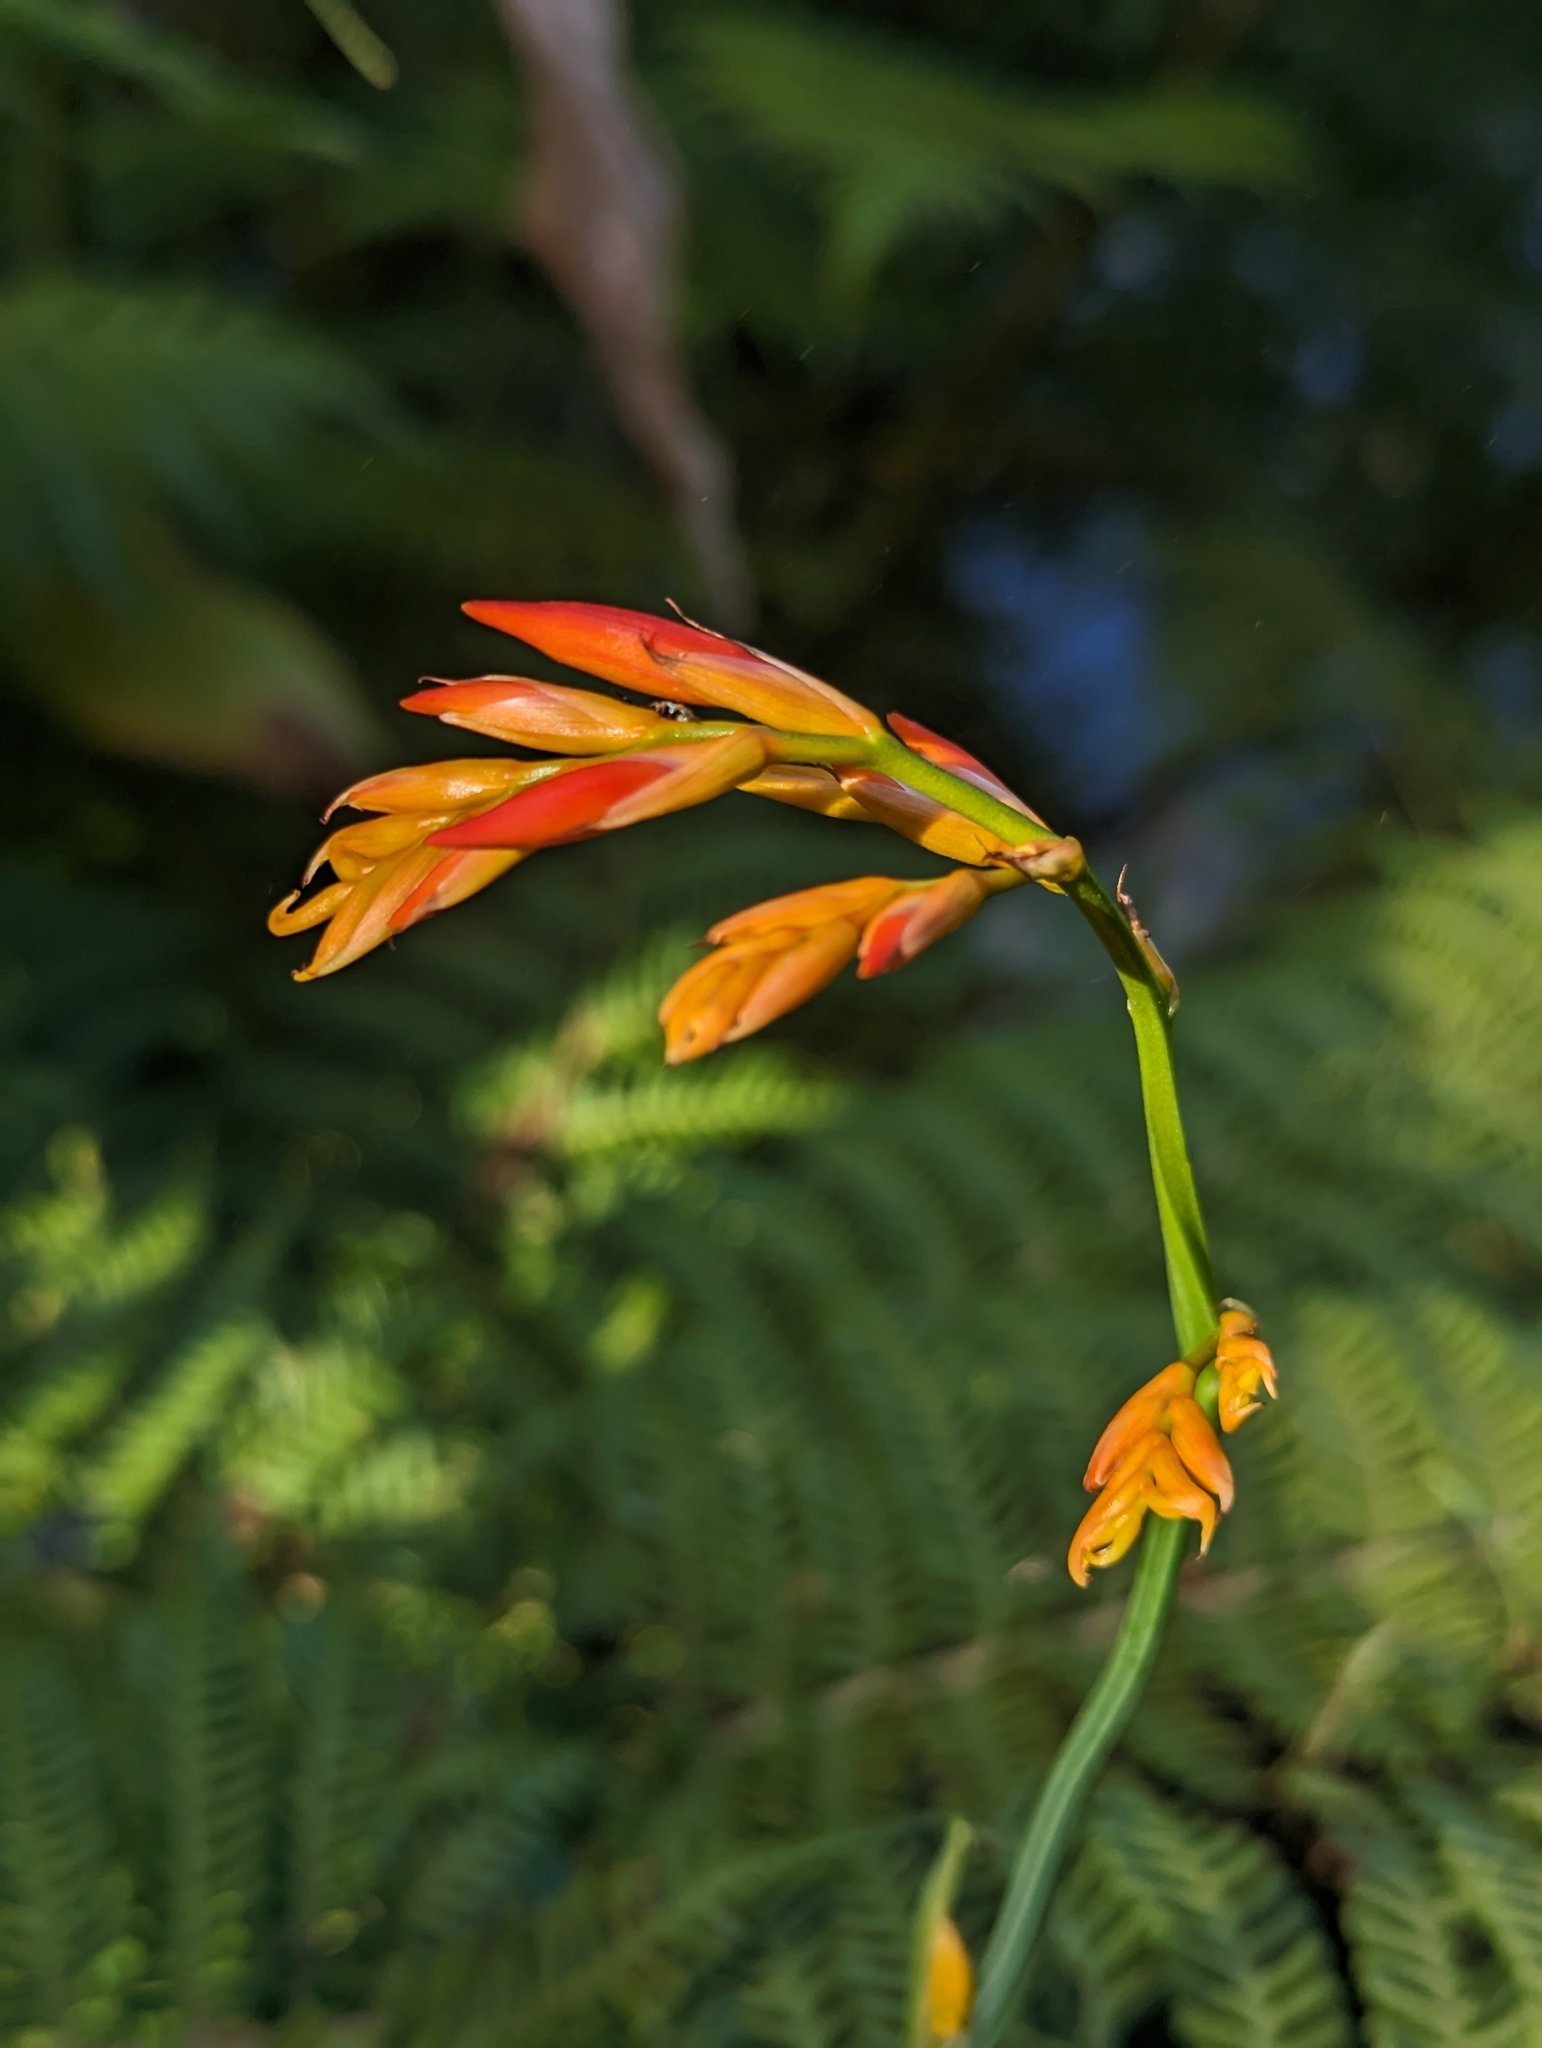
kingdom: Plantae
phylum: Tracheophyta
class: Liliopsida
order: Asparagales
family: Iridaceae
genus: Crocosmia
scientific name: Crocosmia aurea
